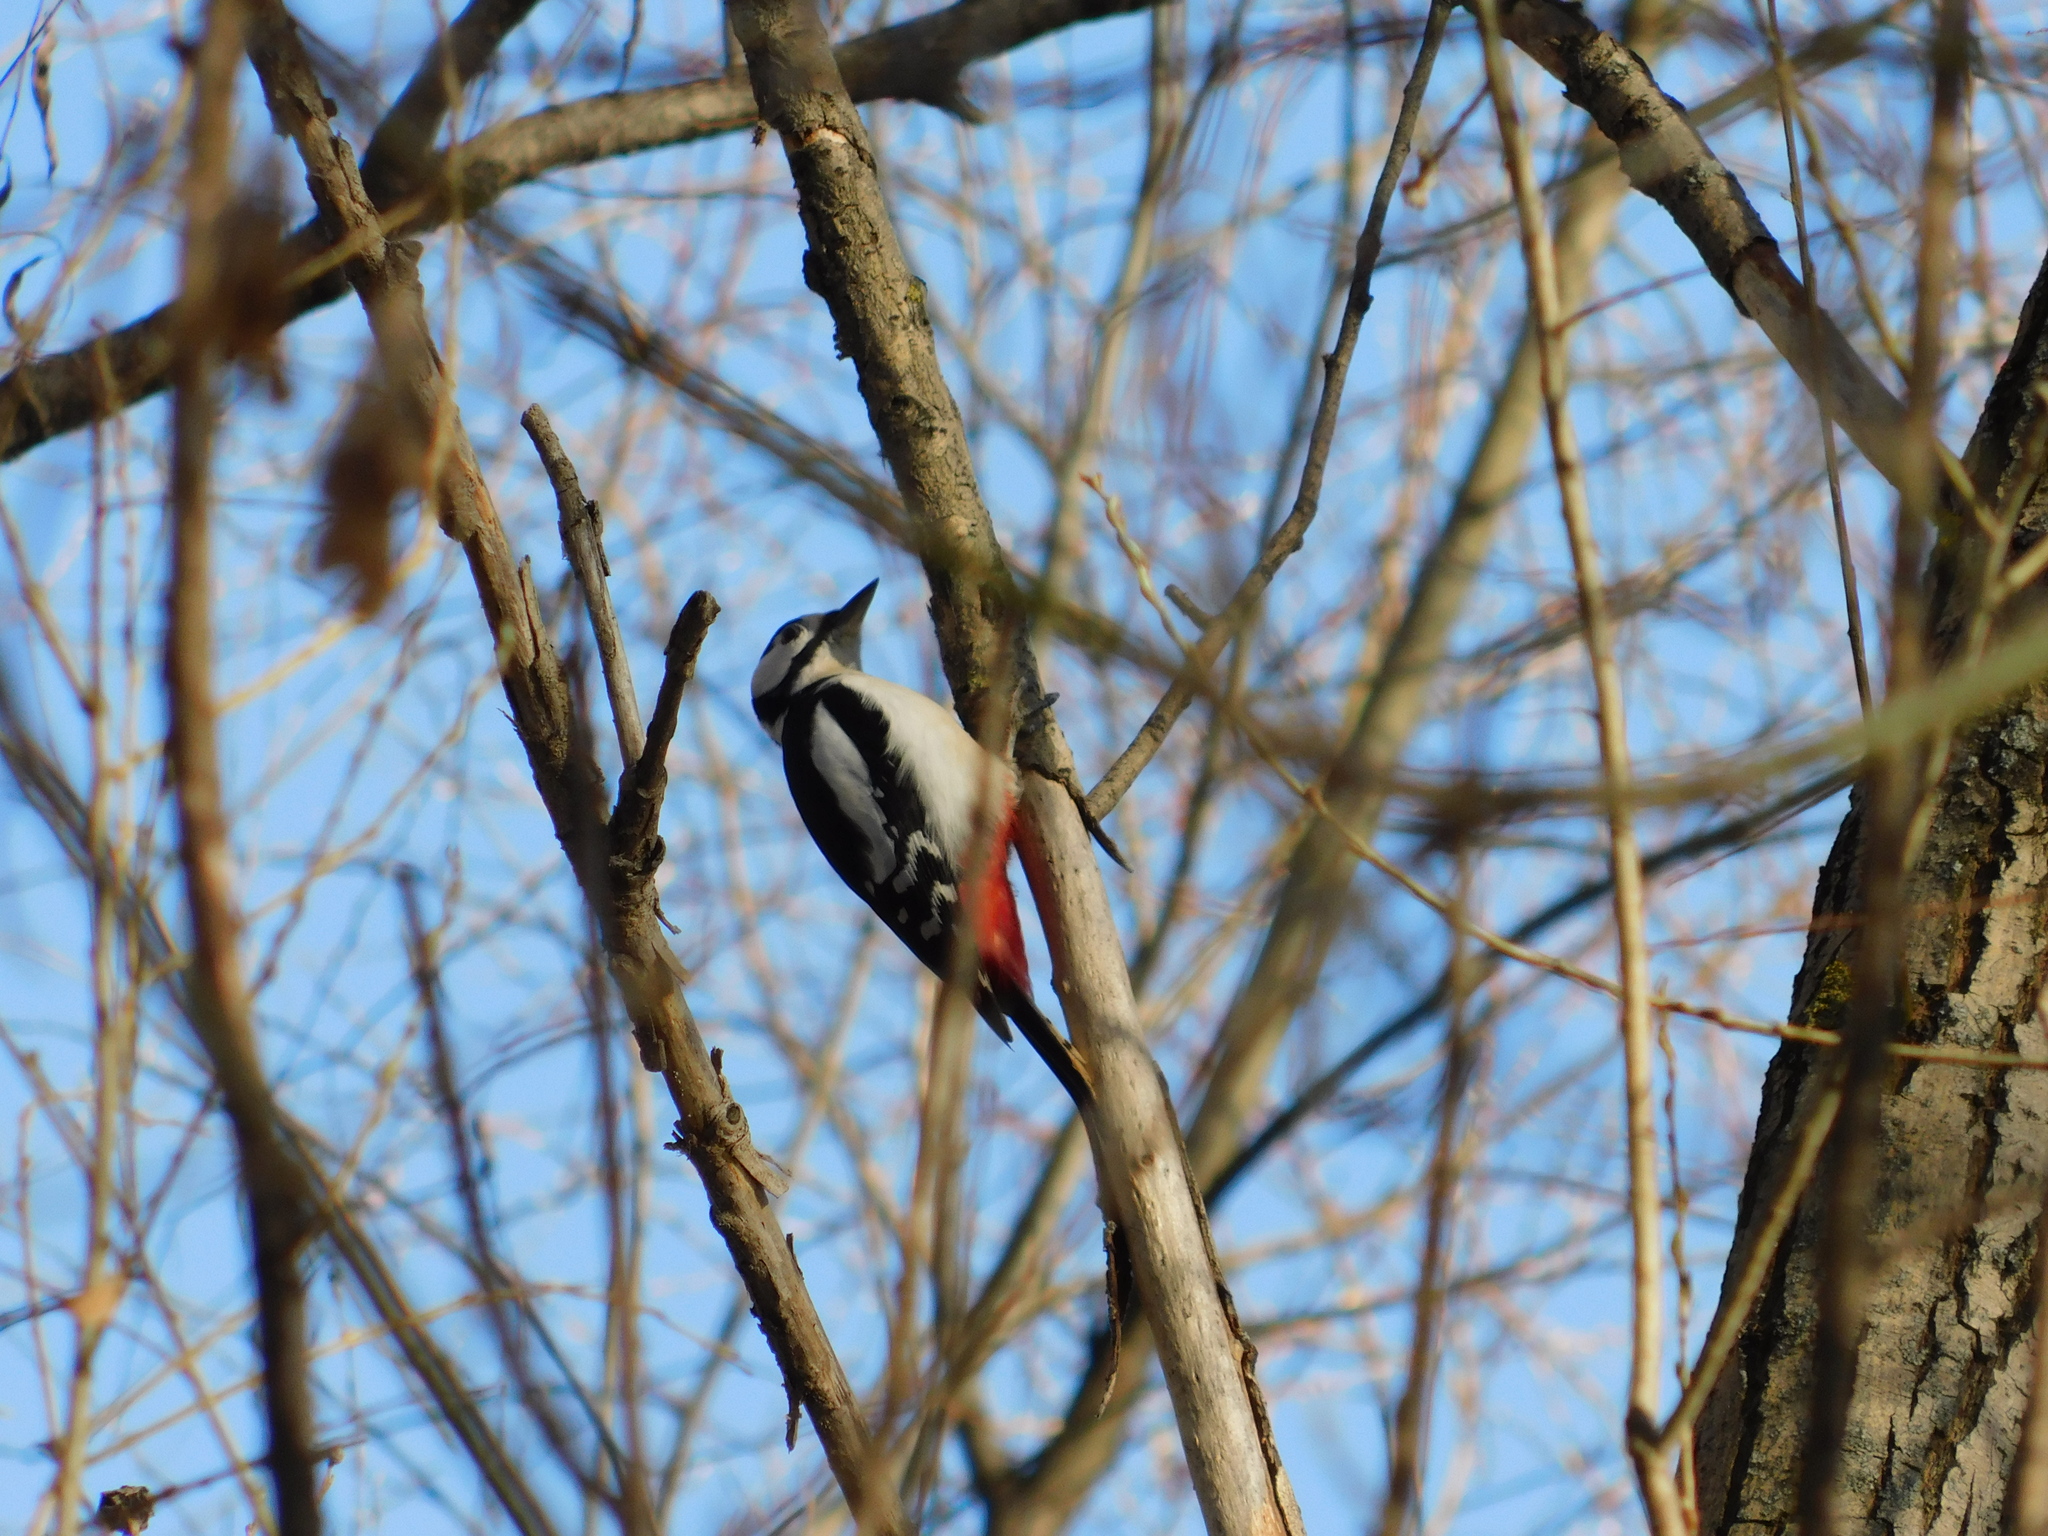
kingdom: Animalia
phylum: Chordata
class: Aves
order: Piciformes
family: Picidae
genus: Dendrocopos
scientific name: Dendrocopos major
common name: Great spotted woodpecker
